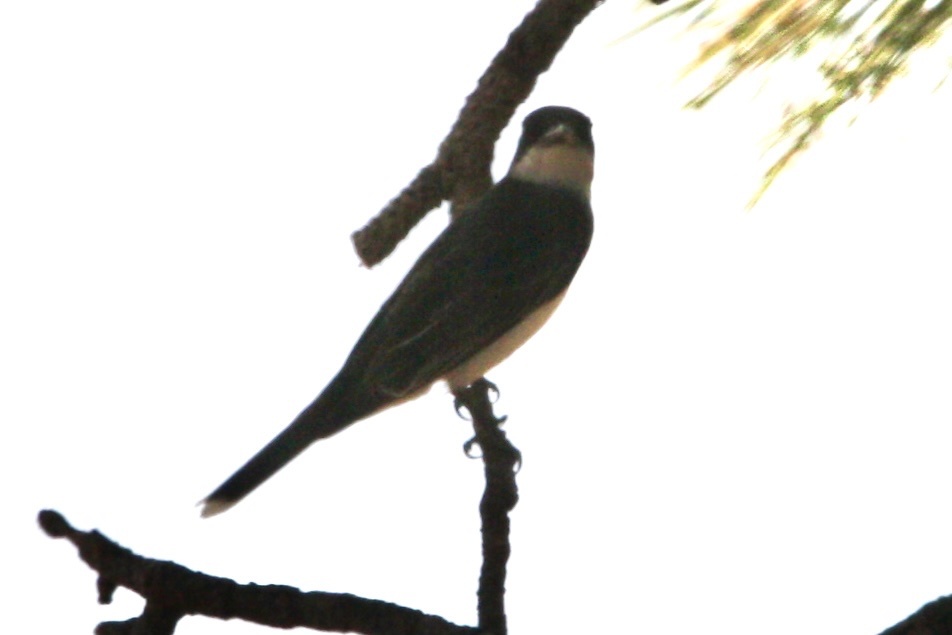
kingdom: Animalia
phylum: Chordata
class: Aves
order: Passeriformes
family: Tyrannidae
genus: Tyrannus
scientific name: Tyrannus tyrannus
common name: Eastern kingbird
